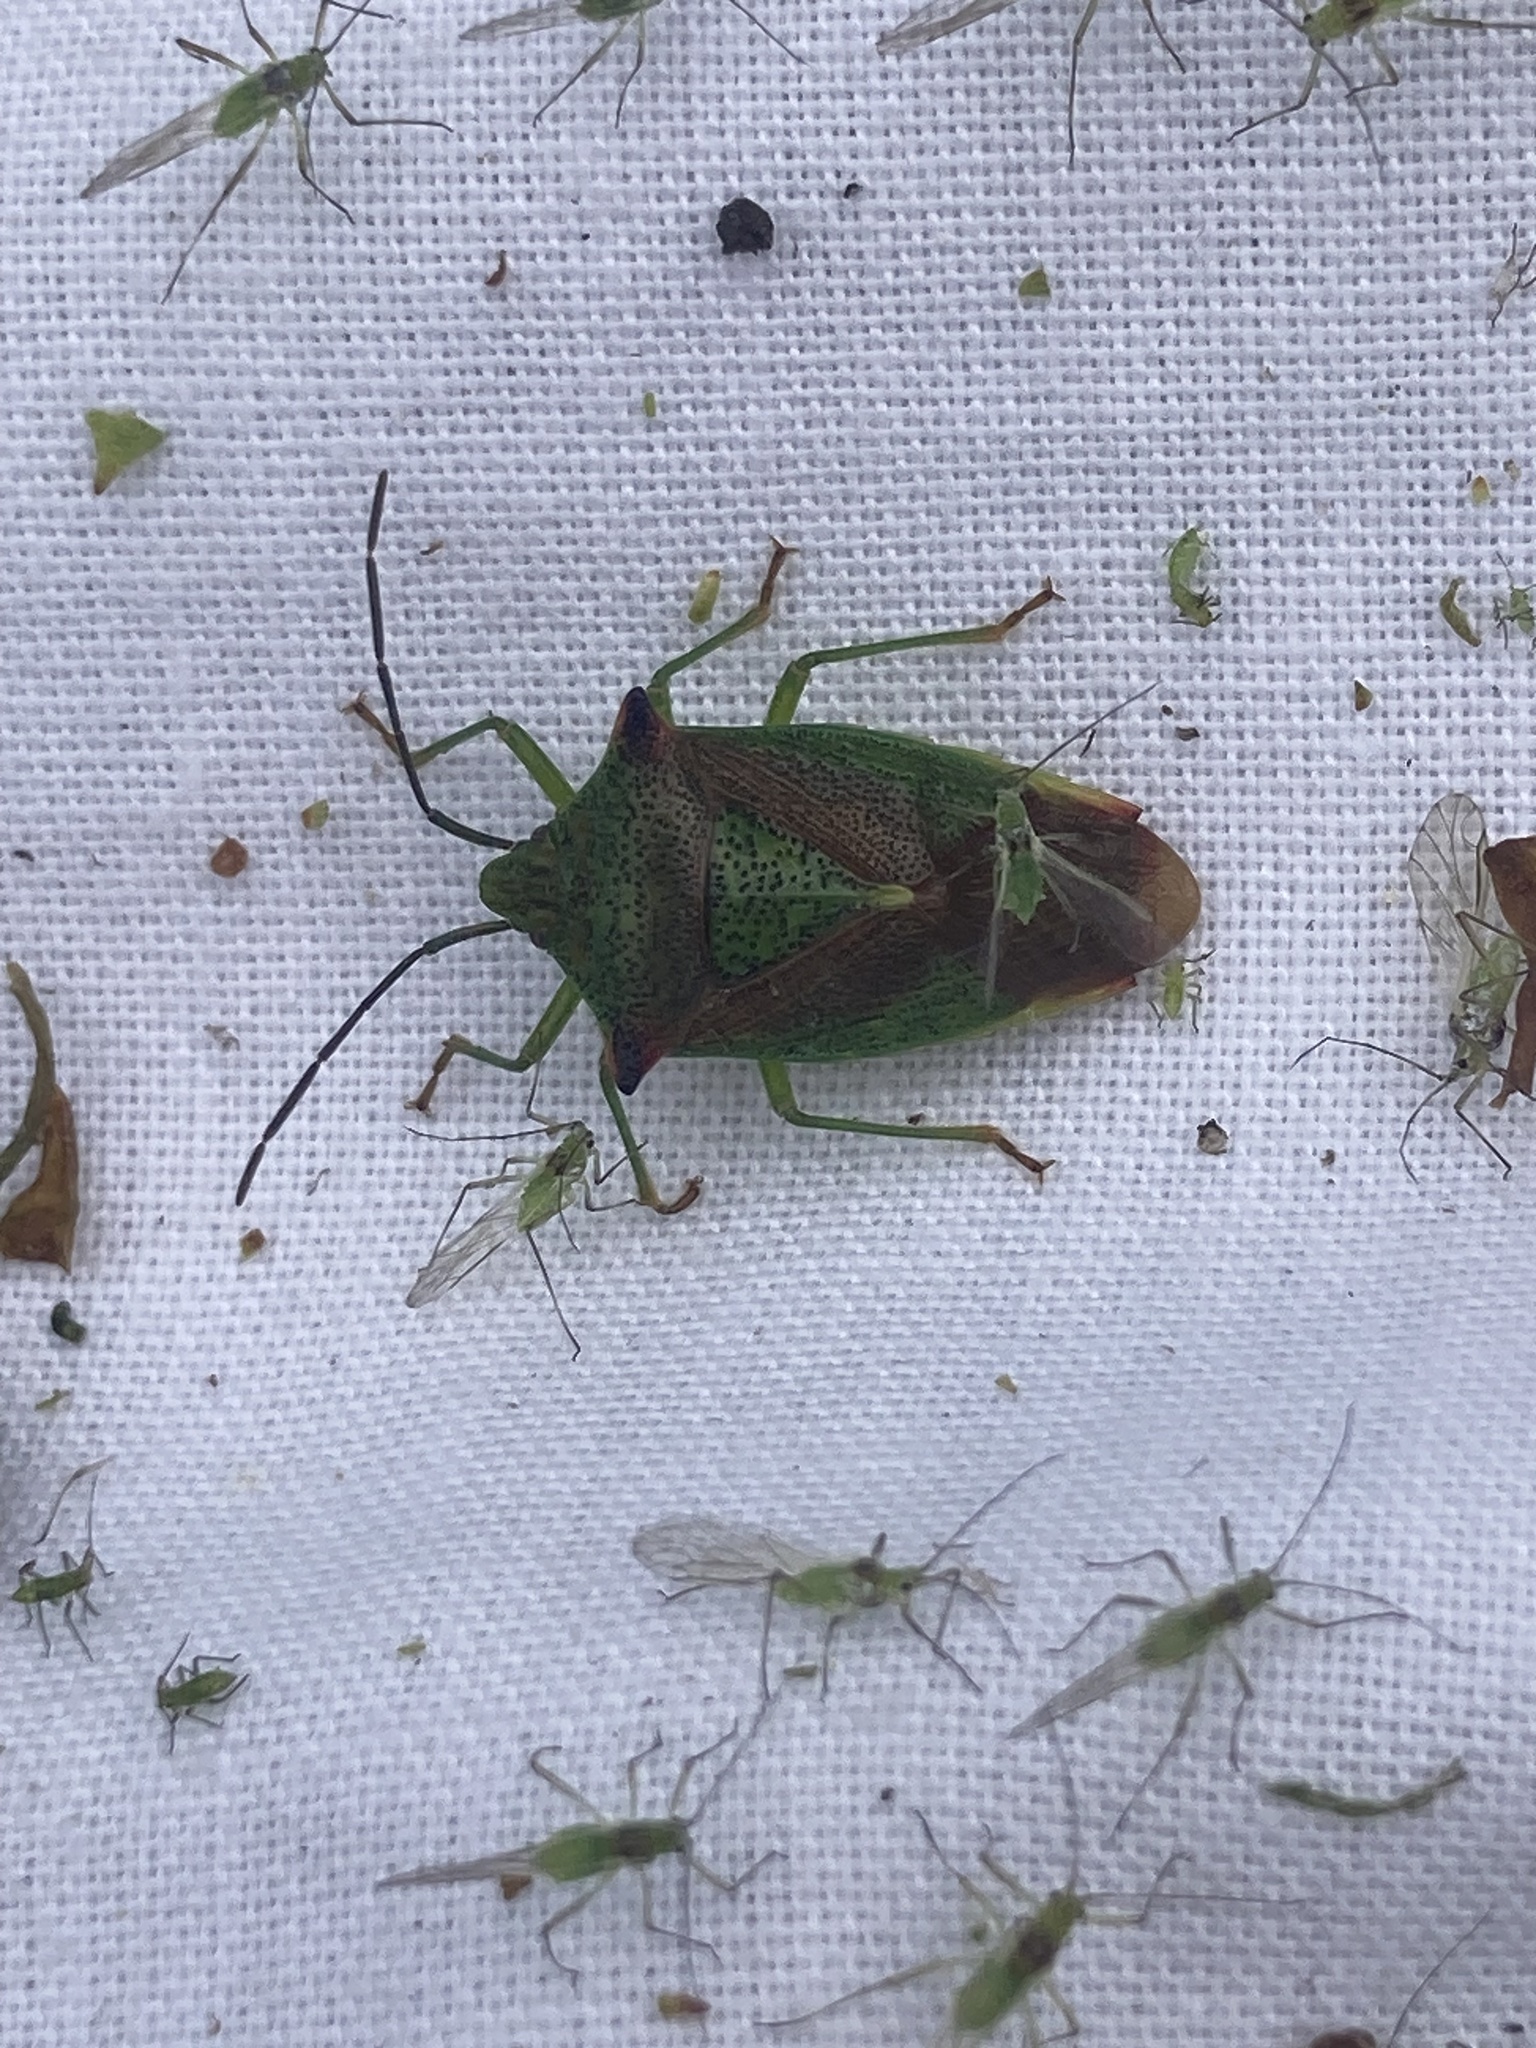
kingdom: Animalia
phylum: Arthropoda
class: Insecta
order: Hemiptera
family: Acanthosomatidae
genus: Acanthosoma
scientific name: Acanthosoma haemorrhoidale
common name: Hawthorn shieldbug
